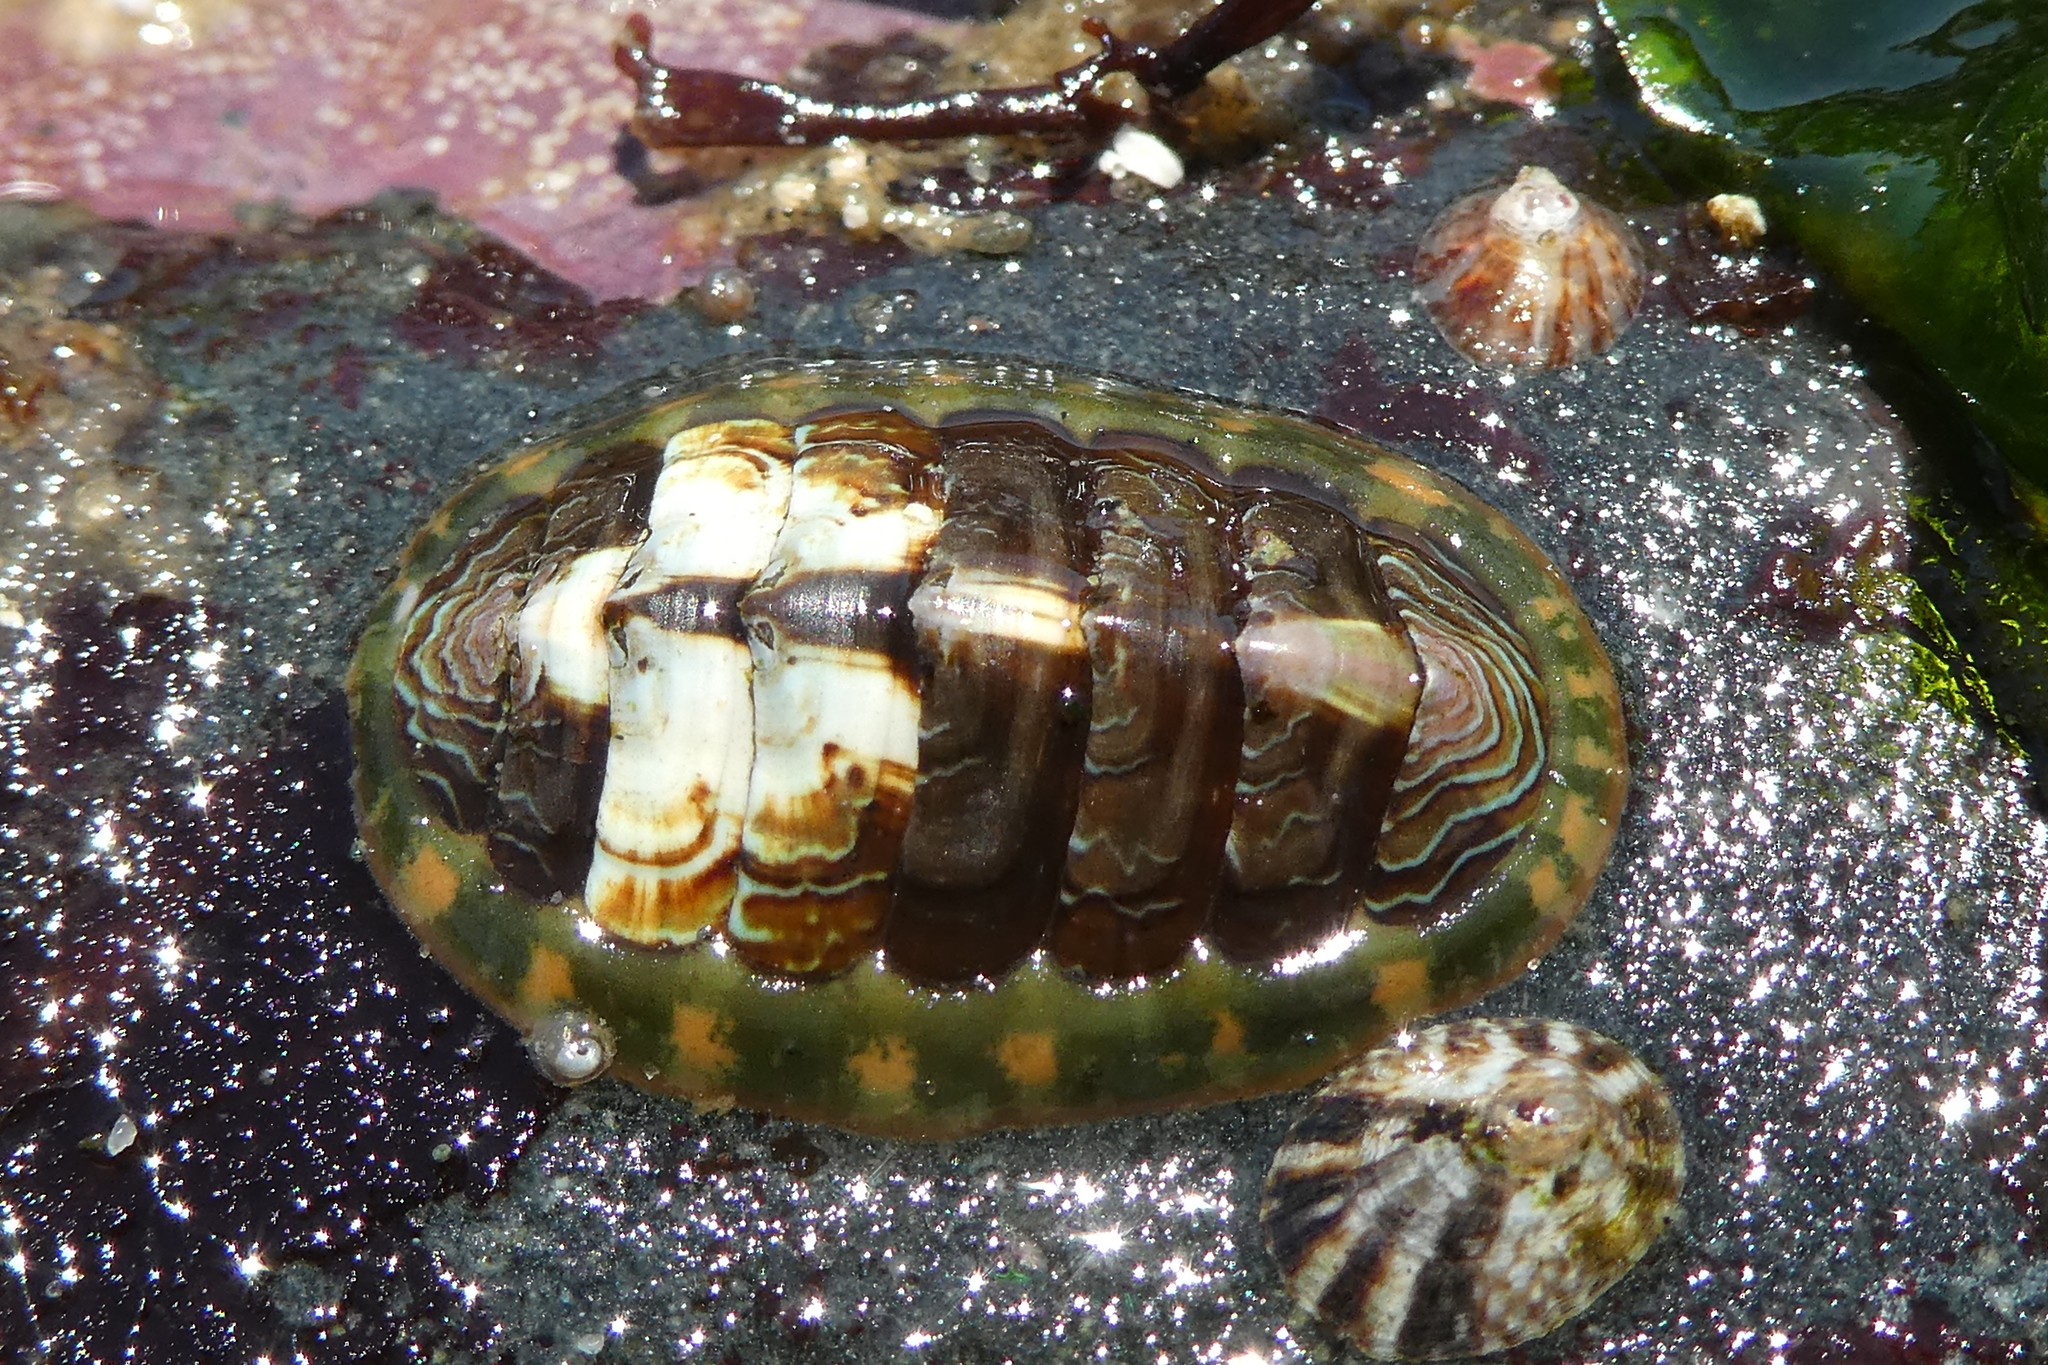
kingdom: Animalia
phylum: Mollusca
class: Polyplacophora
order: Chitonida
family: Tonicellidae
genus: Tonicella
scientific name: Tonicella lineata
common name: Lined chiton
